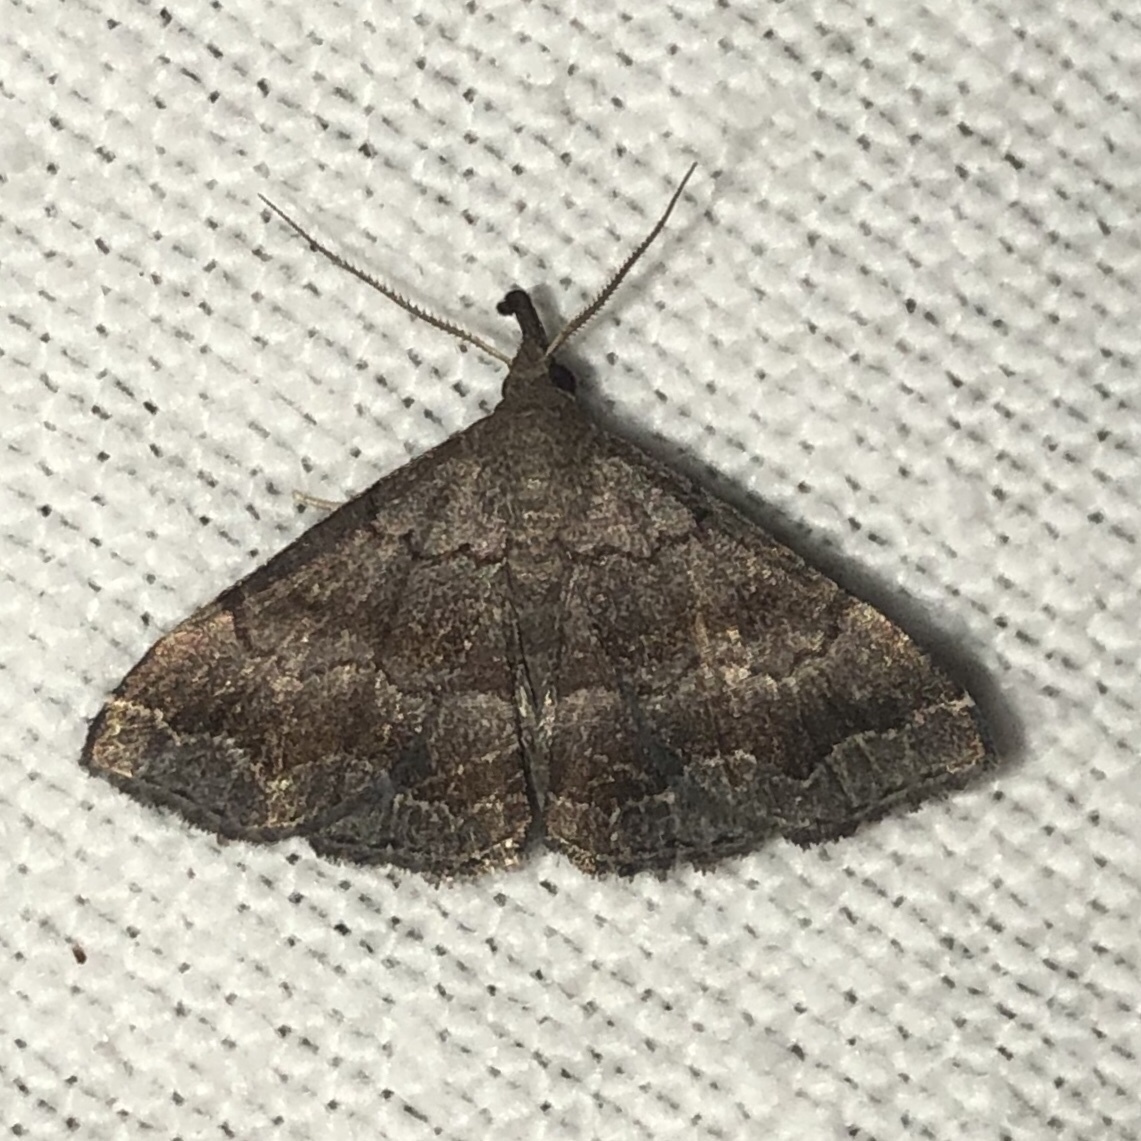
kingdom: Animalia
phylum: Arthropoda
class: Insecta
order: Lepidoptera
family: Erebidae
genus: Phalaenostola
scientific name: Phalaenostola larentioides
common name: Black-banded owlet
